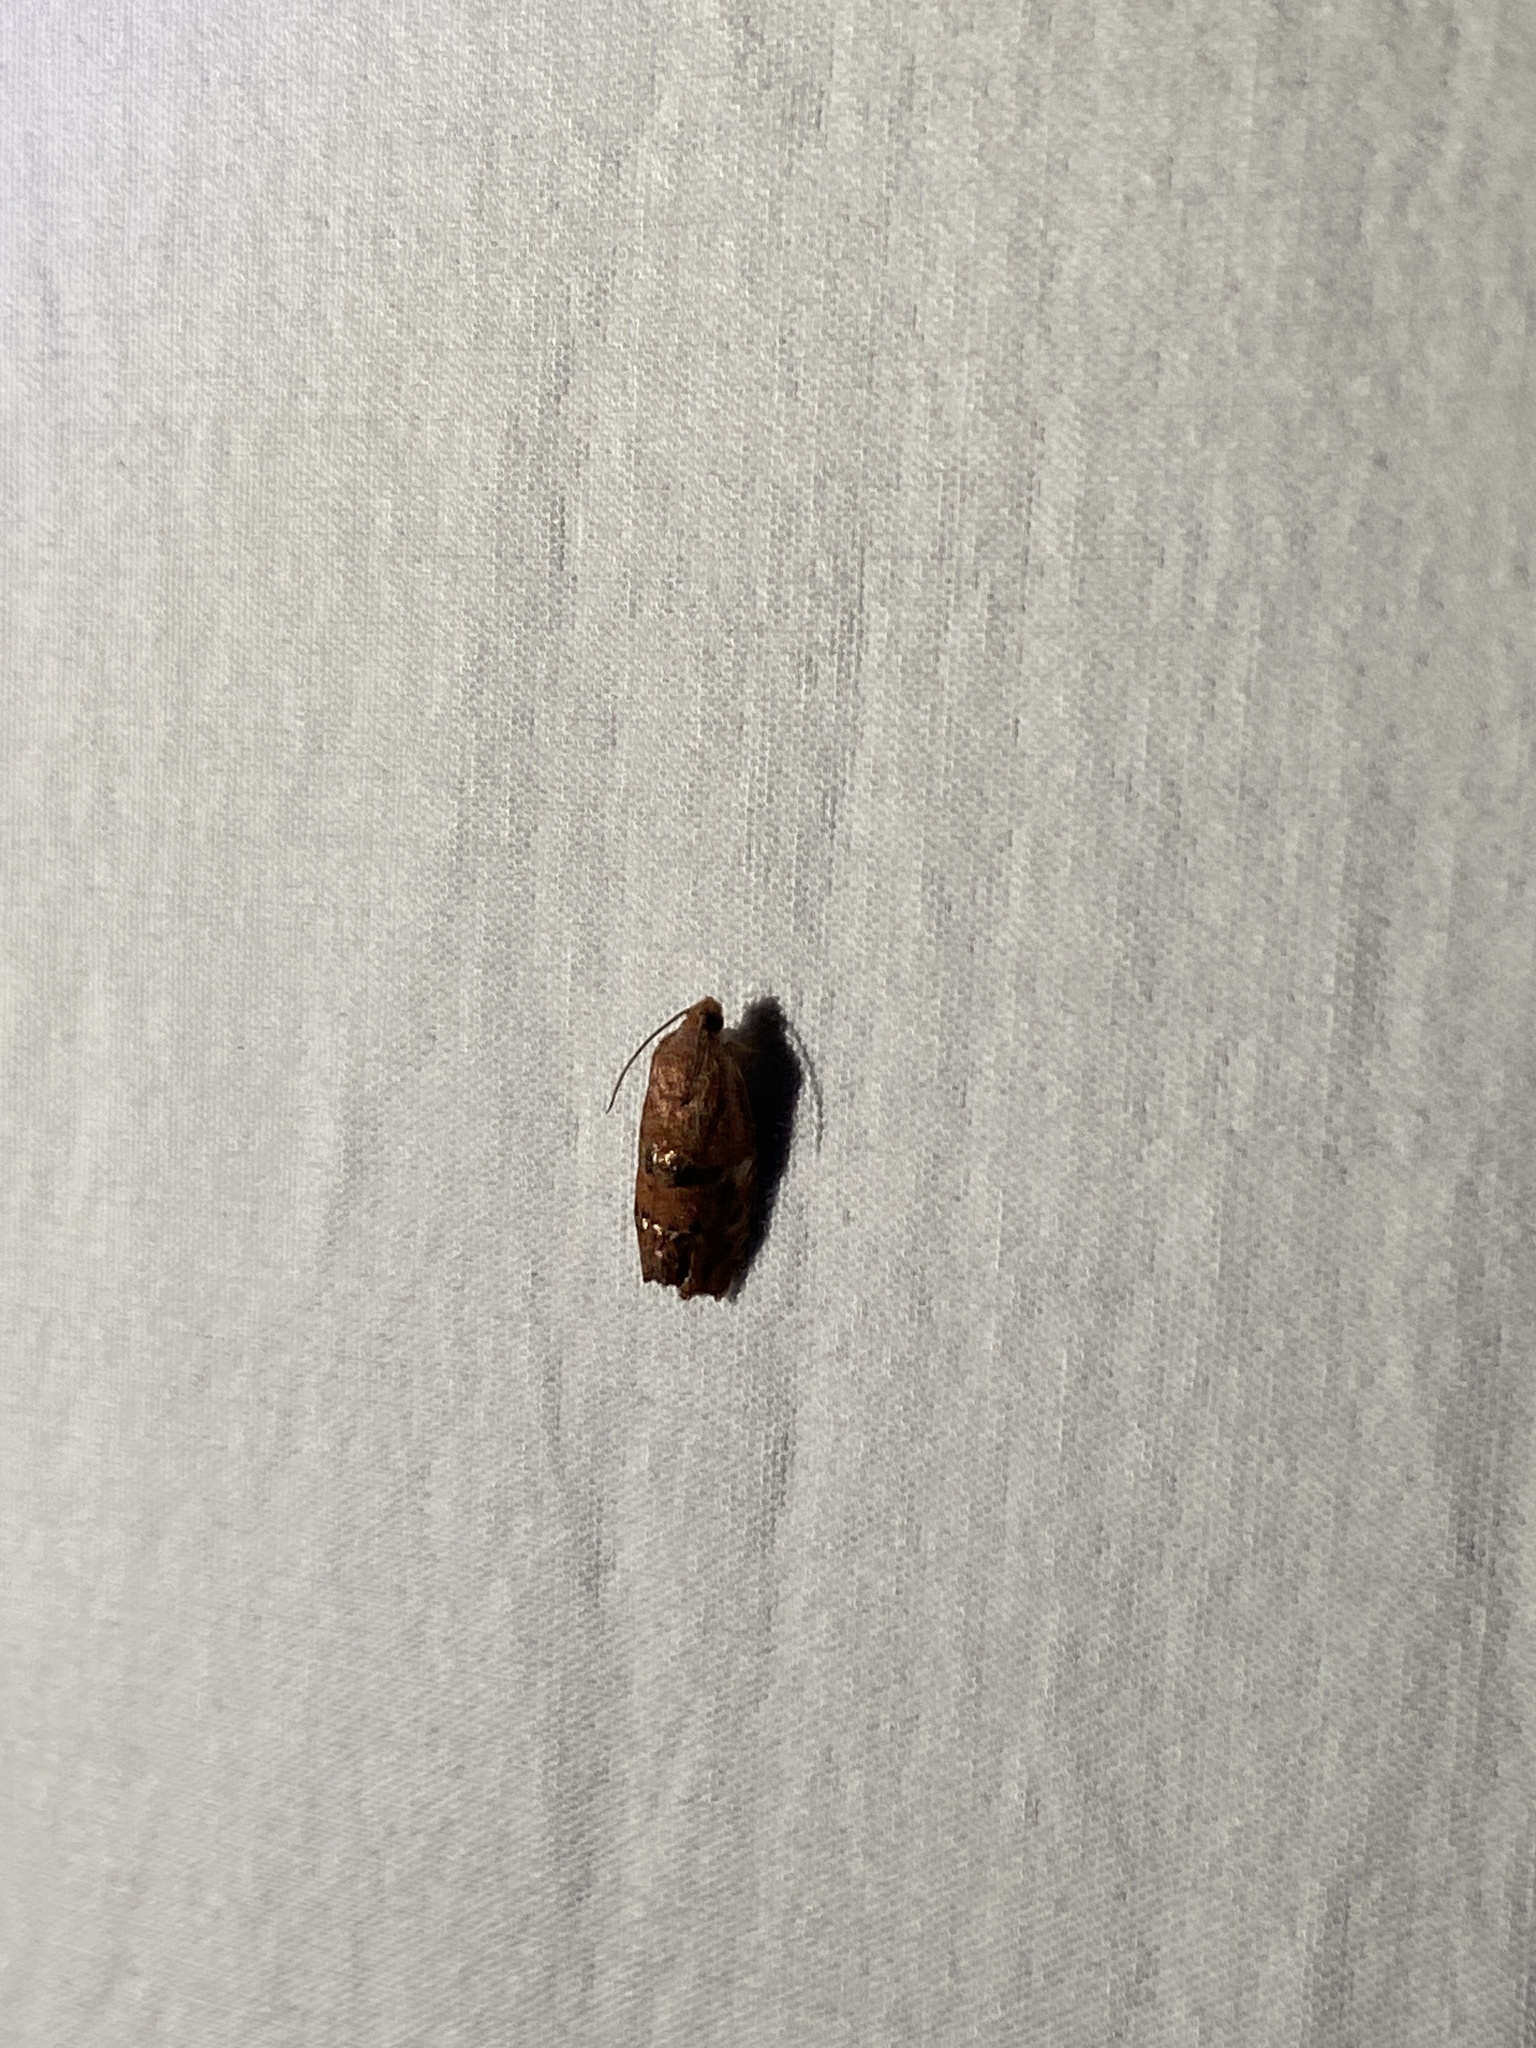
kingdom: Animalia
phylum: Arthropoda
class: Insecta
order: Lepidoptera
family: Tortricidae
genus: Cydia
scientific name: Cydia latiferreana
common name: Filbertworm moth
